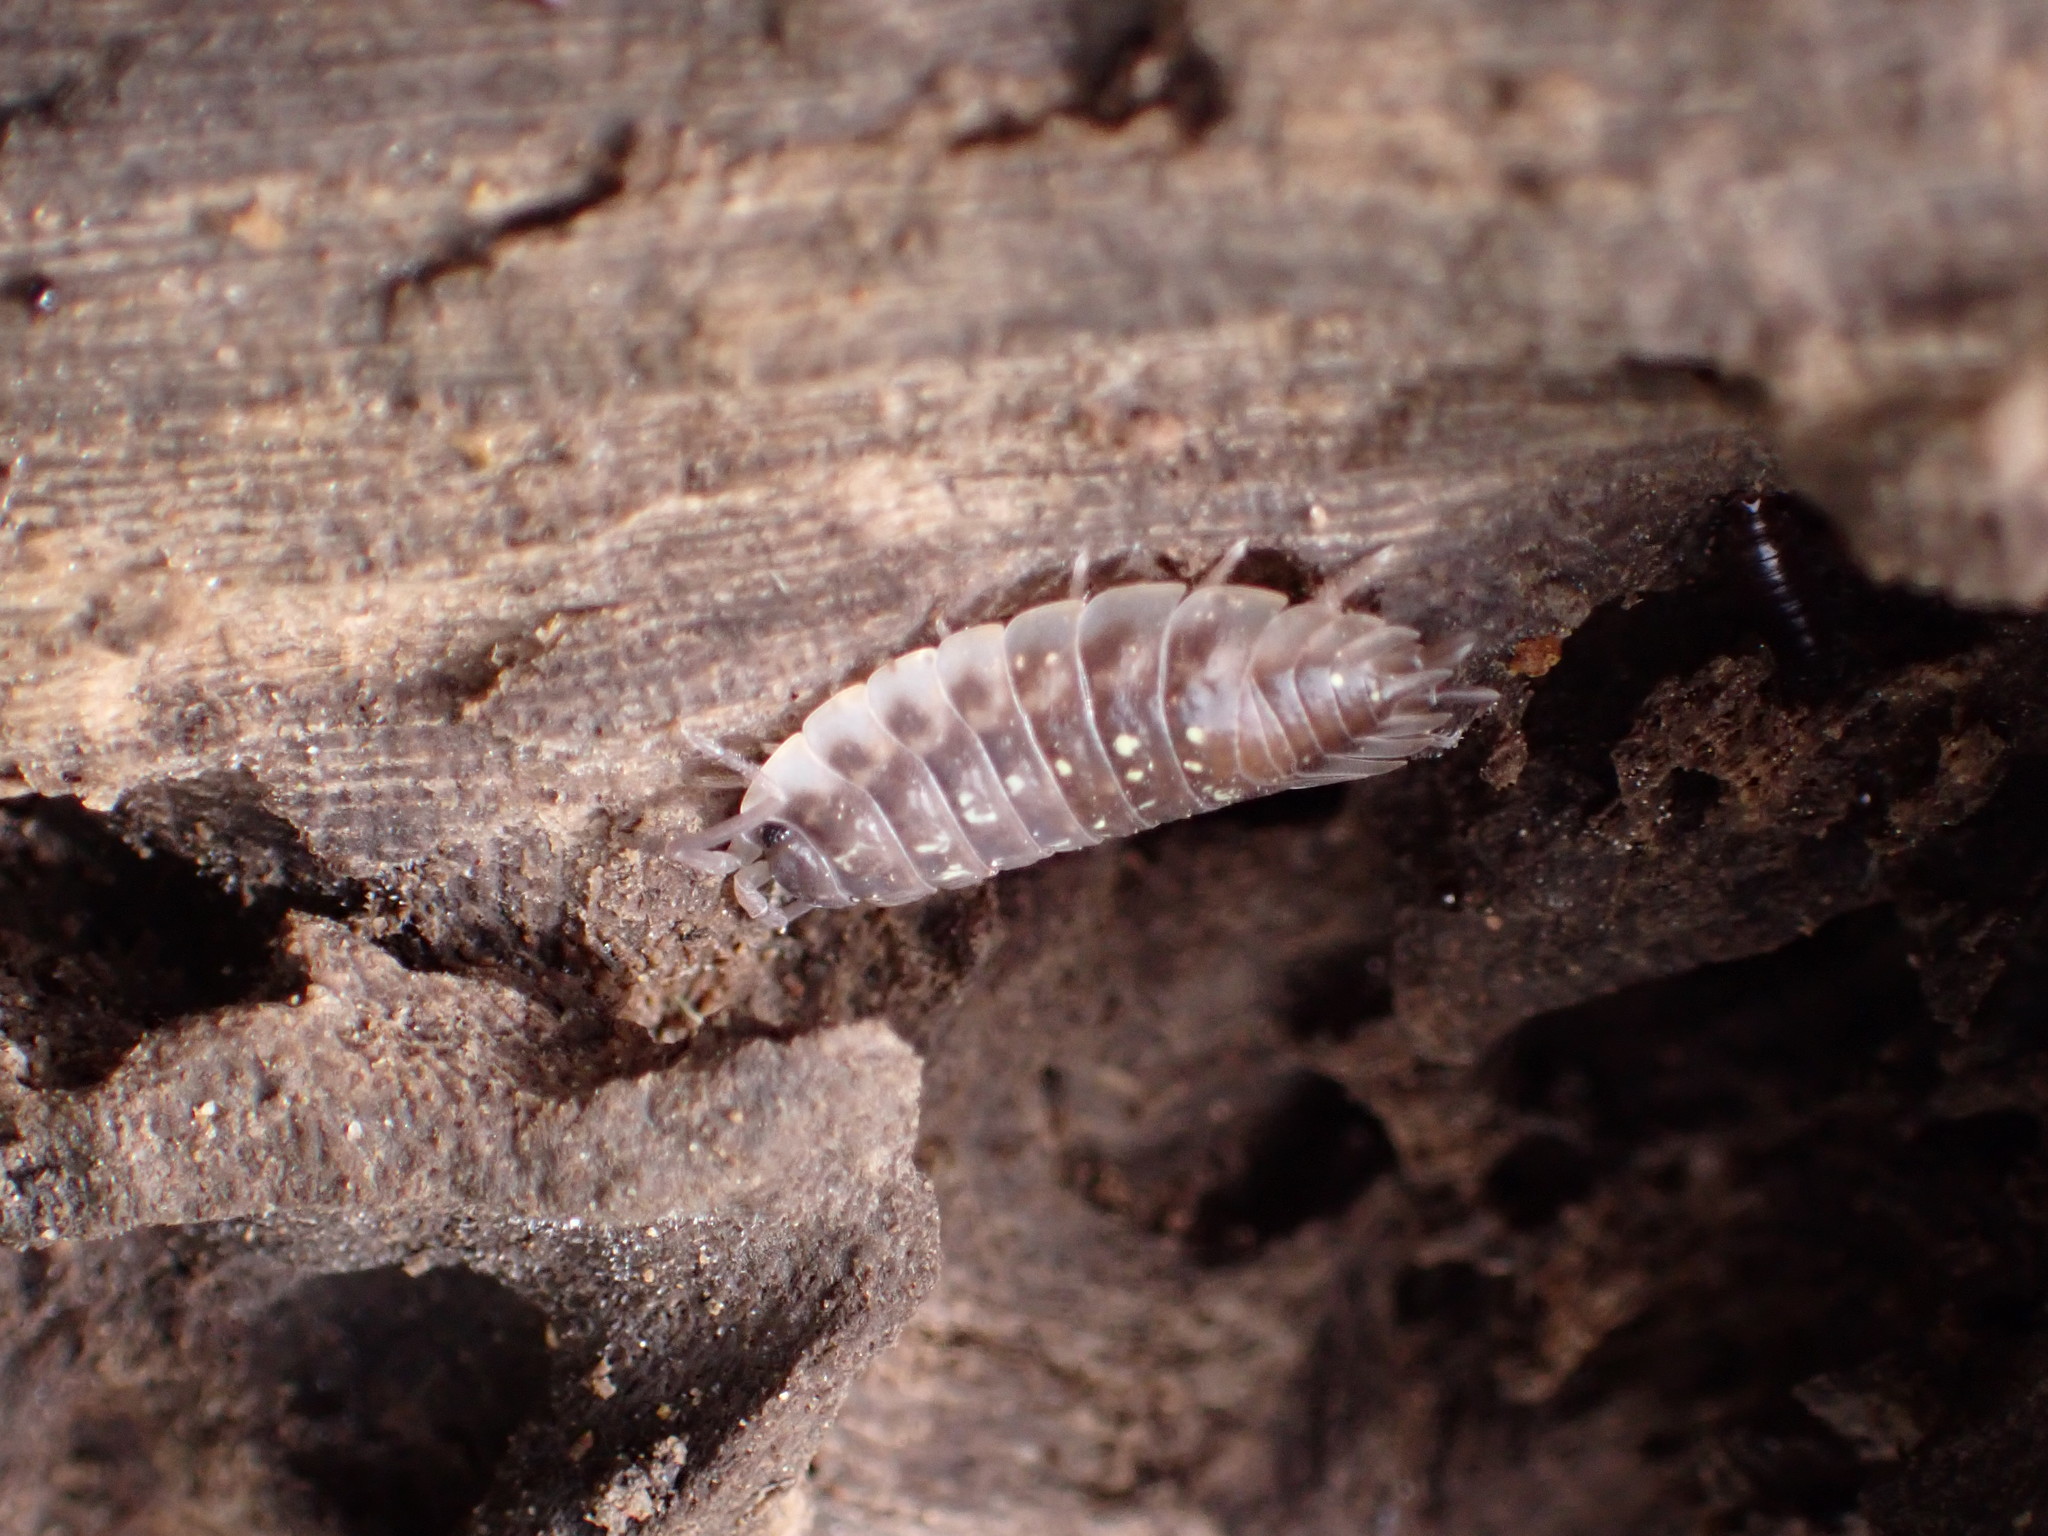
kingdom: Animalia
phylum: Arthropoda
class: Malacostraca
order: Isopoda
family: Oniscidae
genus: Oniscus
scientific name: Oniscus asellus
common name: Common shiny woodlouse
